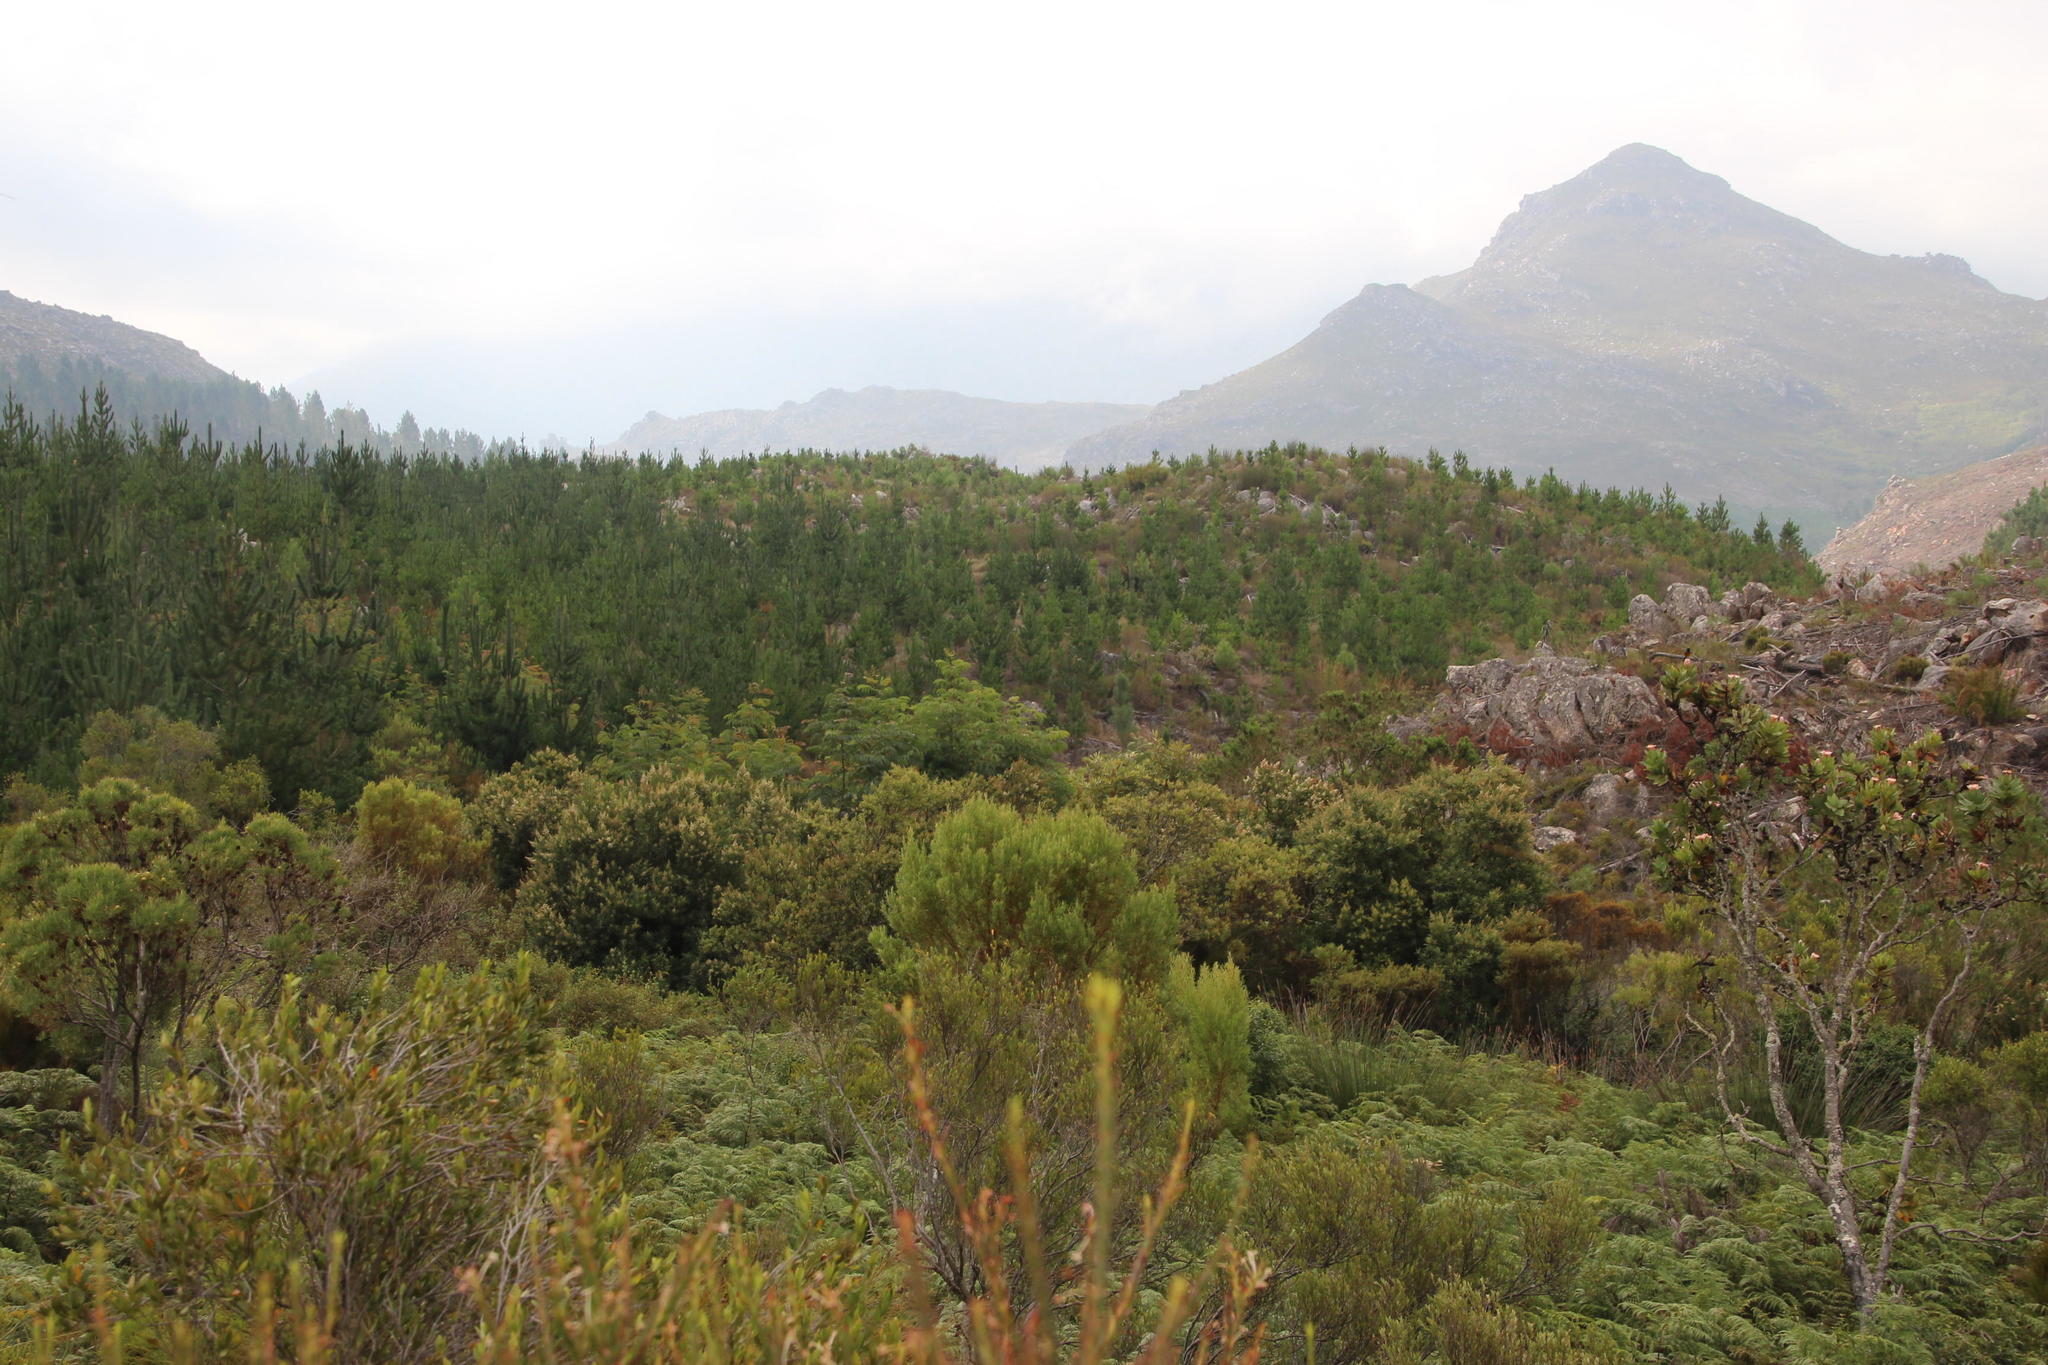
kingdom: Plantae
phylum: Tracheophyta
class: Magnoliopsida
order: Fabales
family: Fabaceae
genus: Acacia
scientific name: Acacia elata
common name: Cedar wattle
